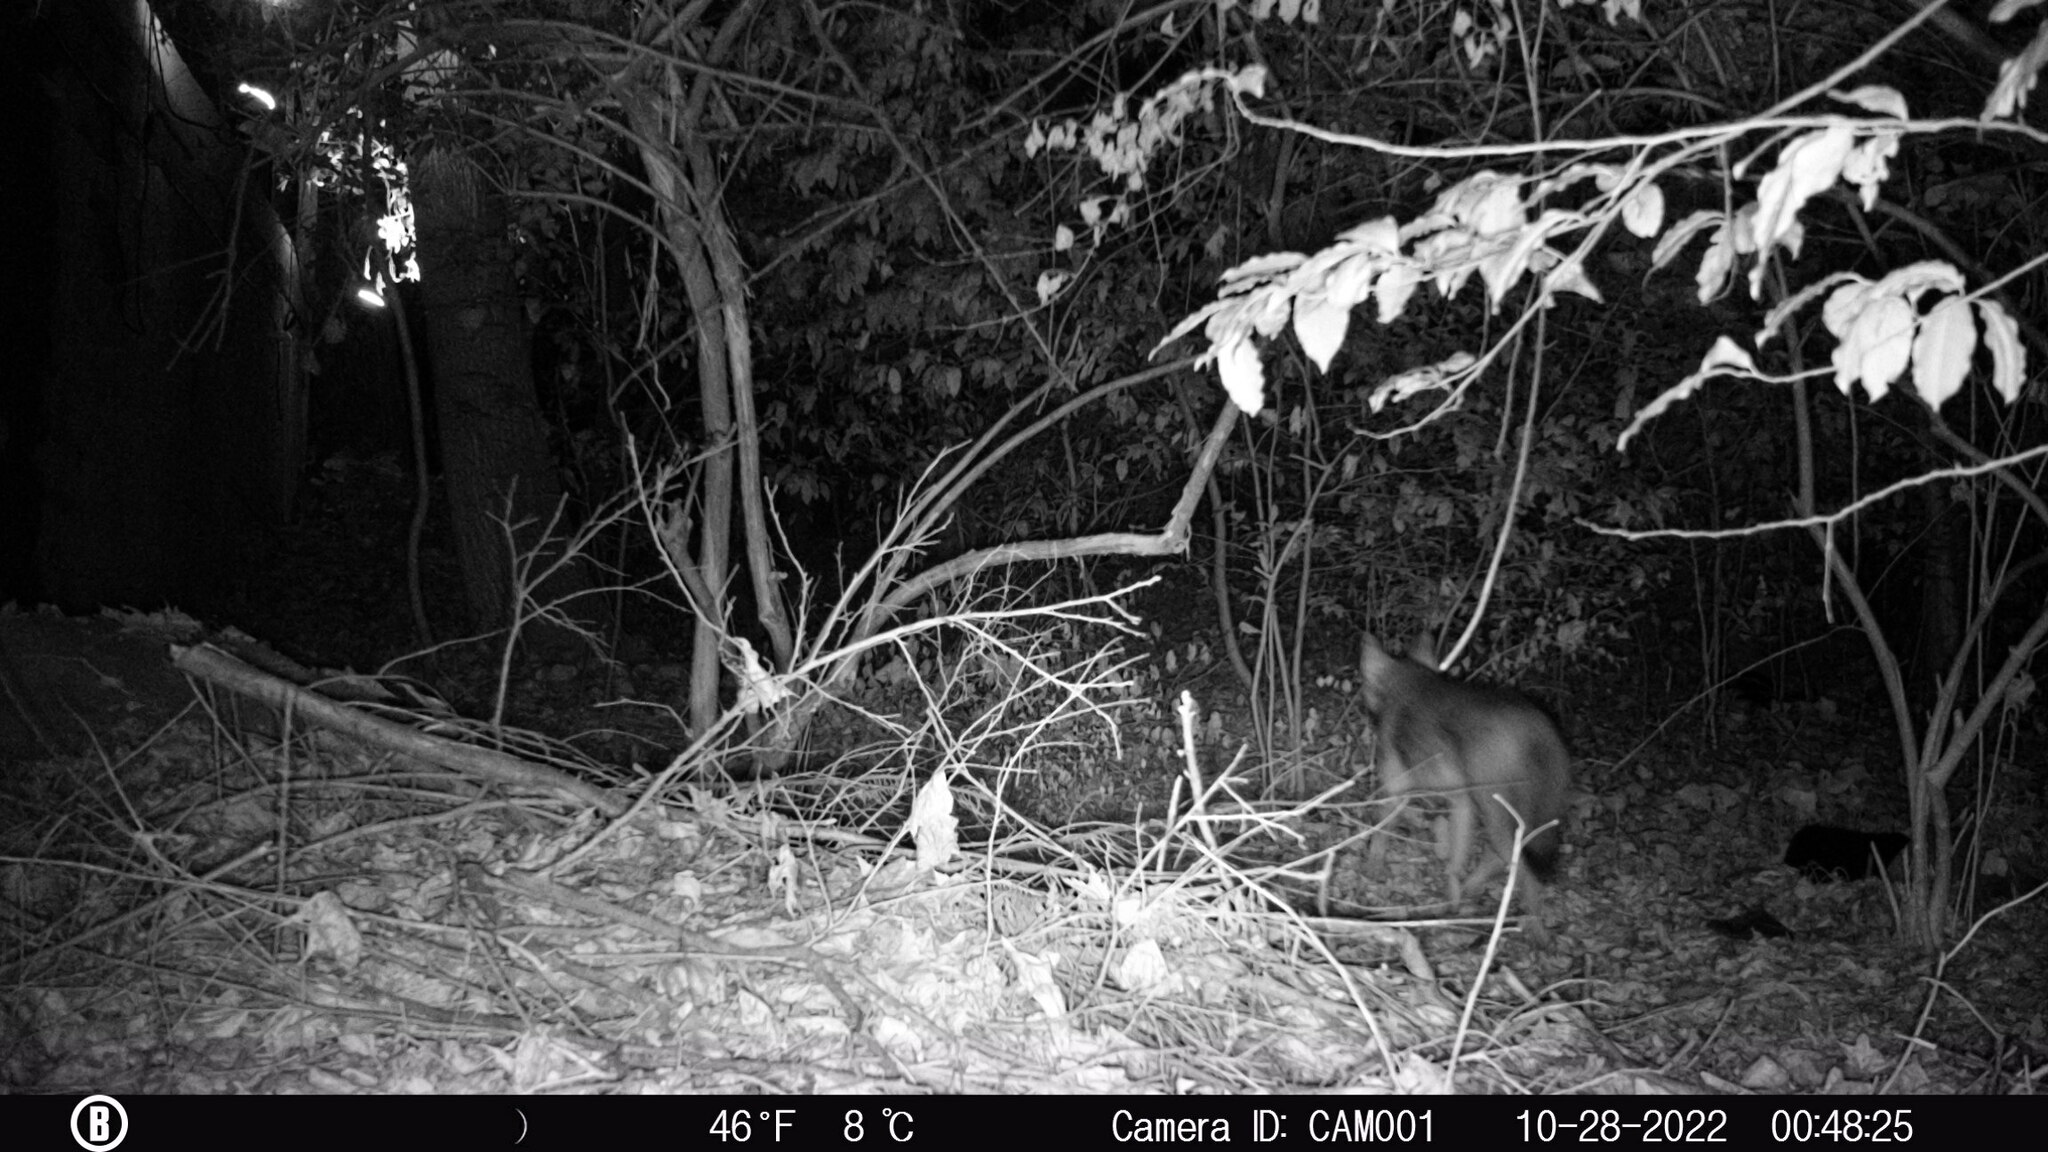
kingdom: Animalia
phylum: Chordata
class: Mammalia
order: Carnivora
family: Canidae
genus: Canis
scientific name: Canis latrans
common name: Coyote
